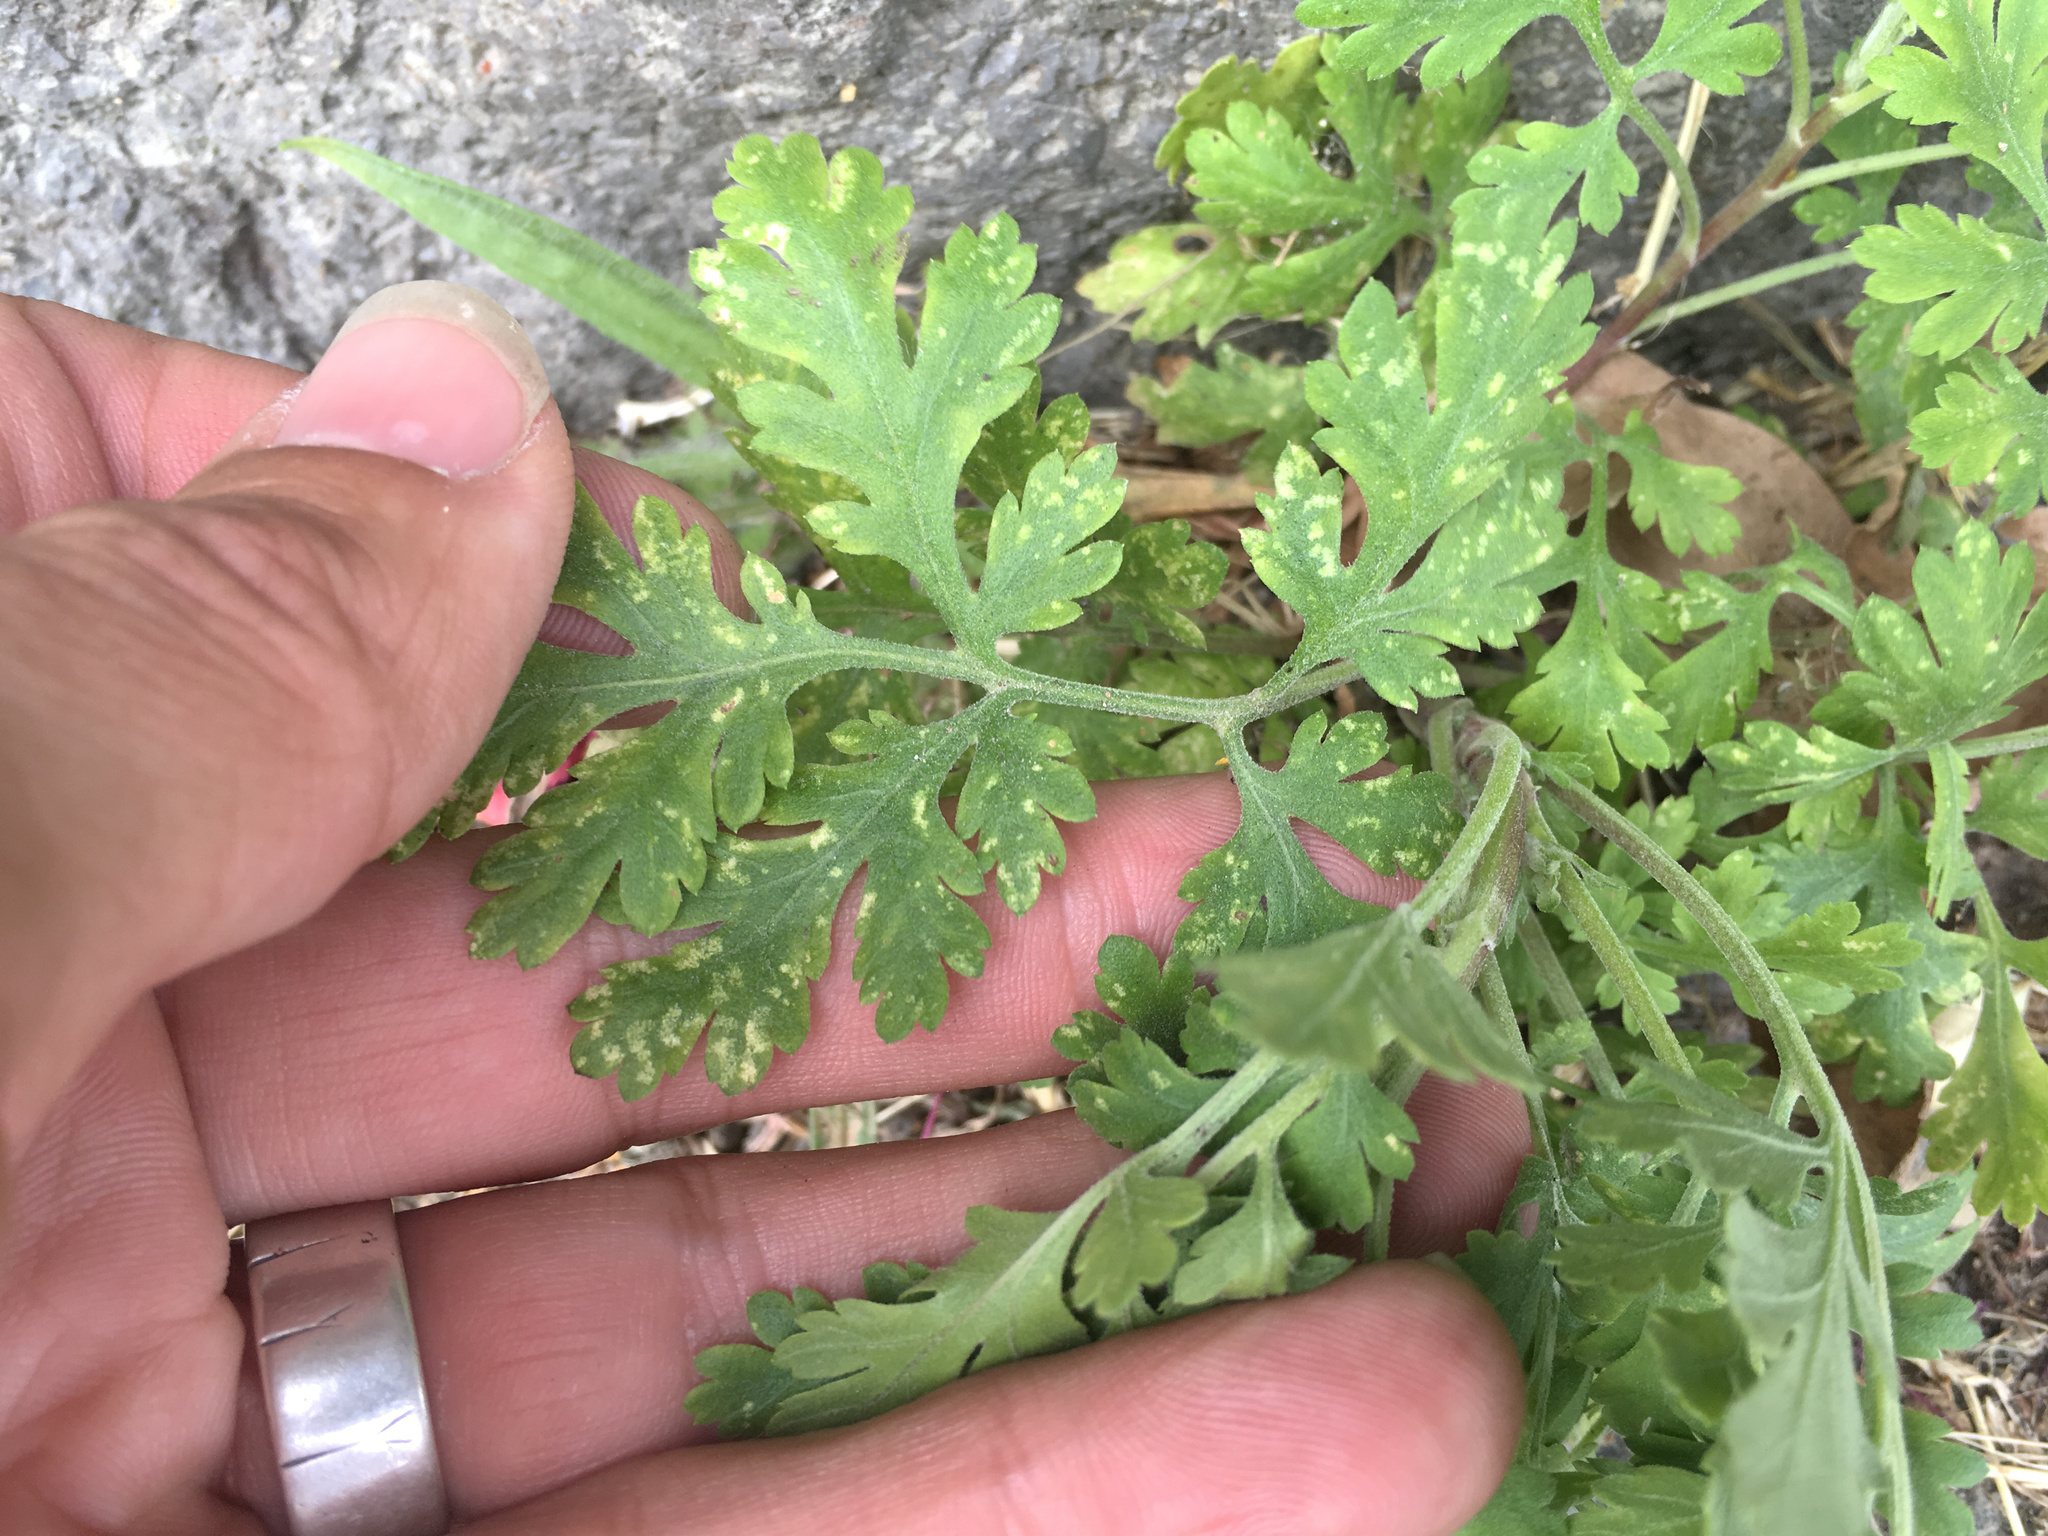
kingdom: Plantae
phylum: Tracheophyta
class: Magnoliopsida
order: Asterales
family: Asteraceae
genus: Tanacetum
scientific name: Tanacetum parthenium
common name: Feverfew
